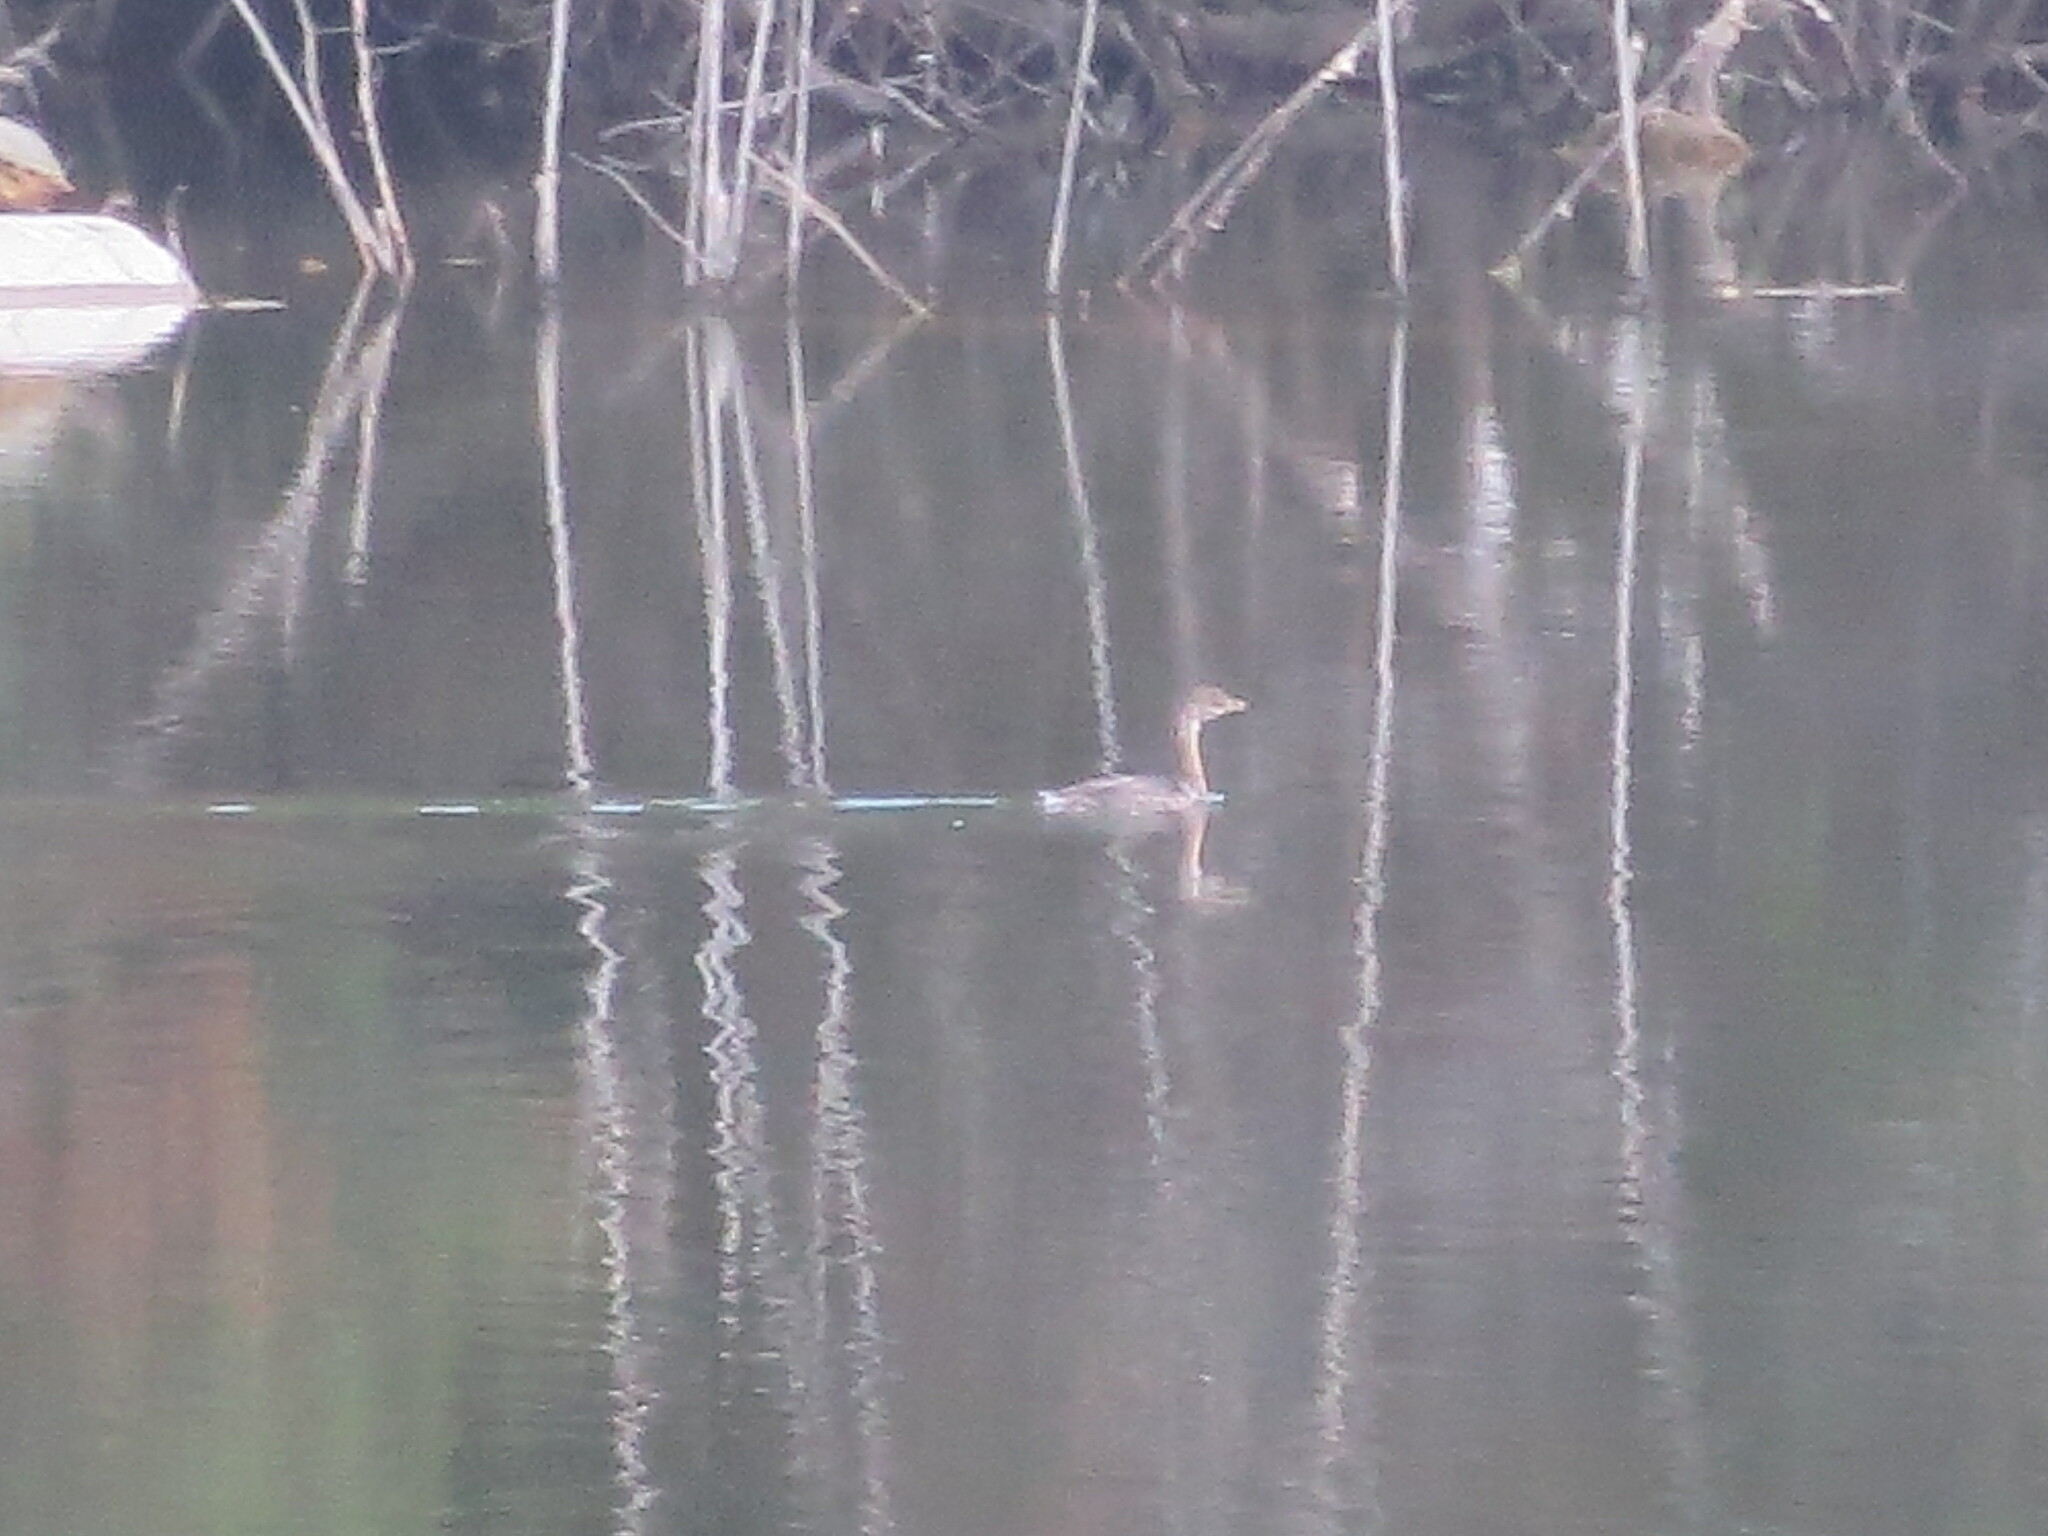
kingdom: Animalia
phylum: Chordata
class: Aves
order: Podicipediformes
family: Podicipedidae
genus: Podilymbus
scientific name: Podilymbus podiceps
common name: Pied-billed grebe
